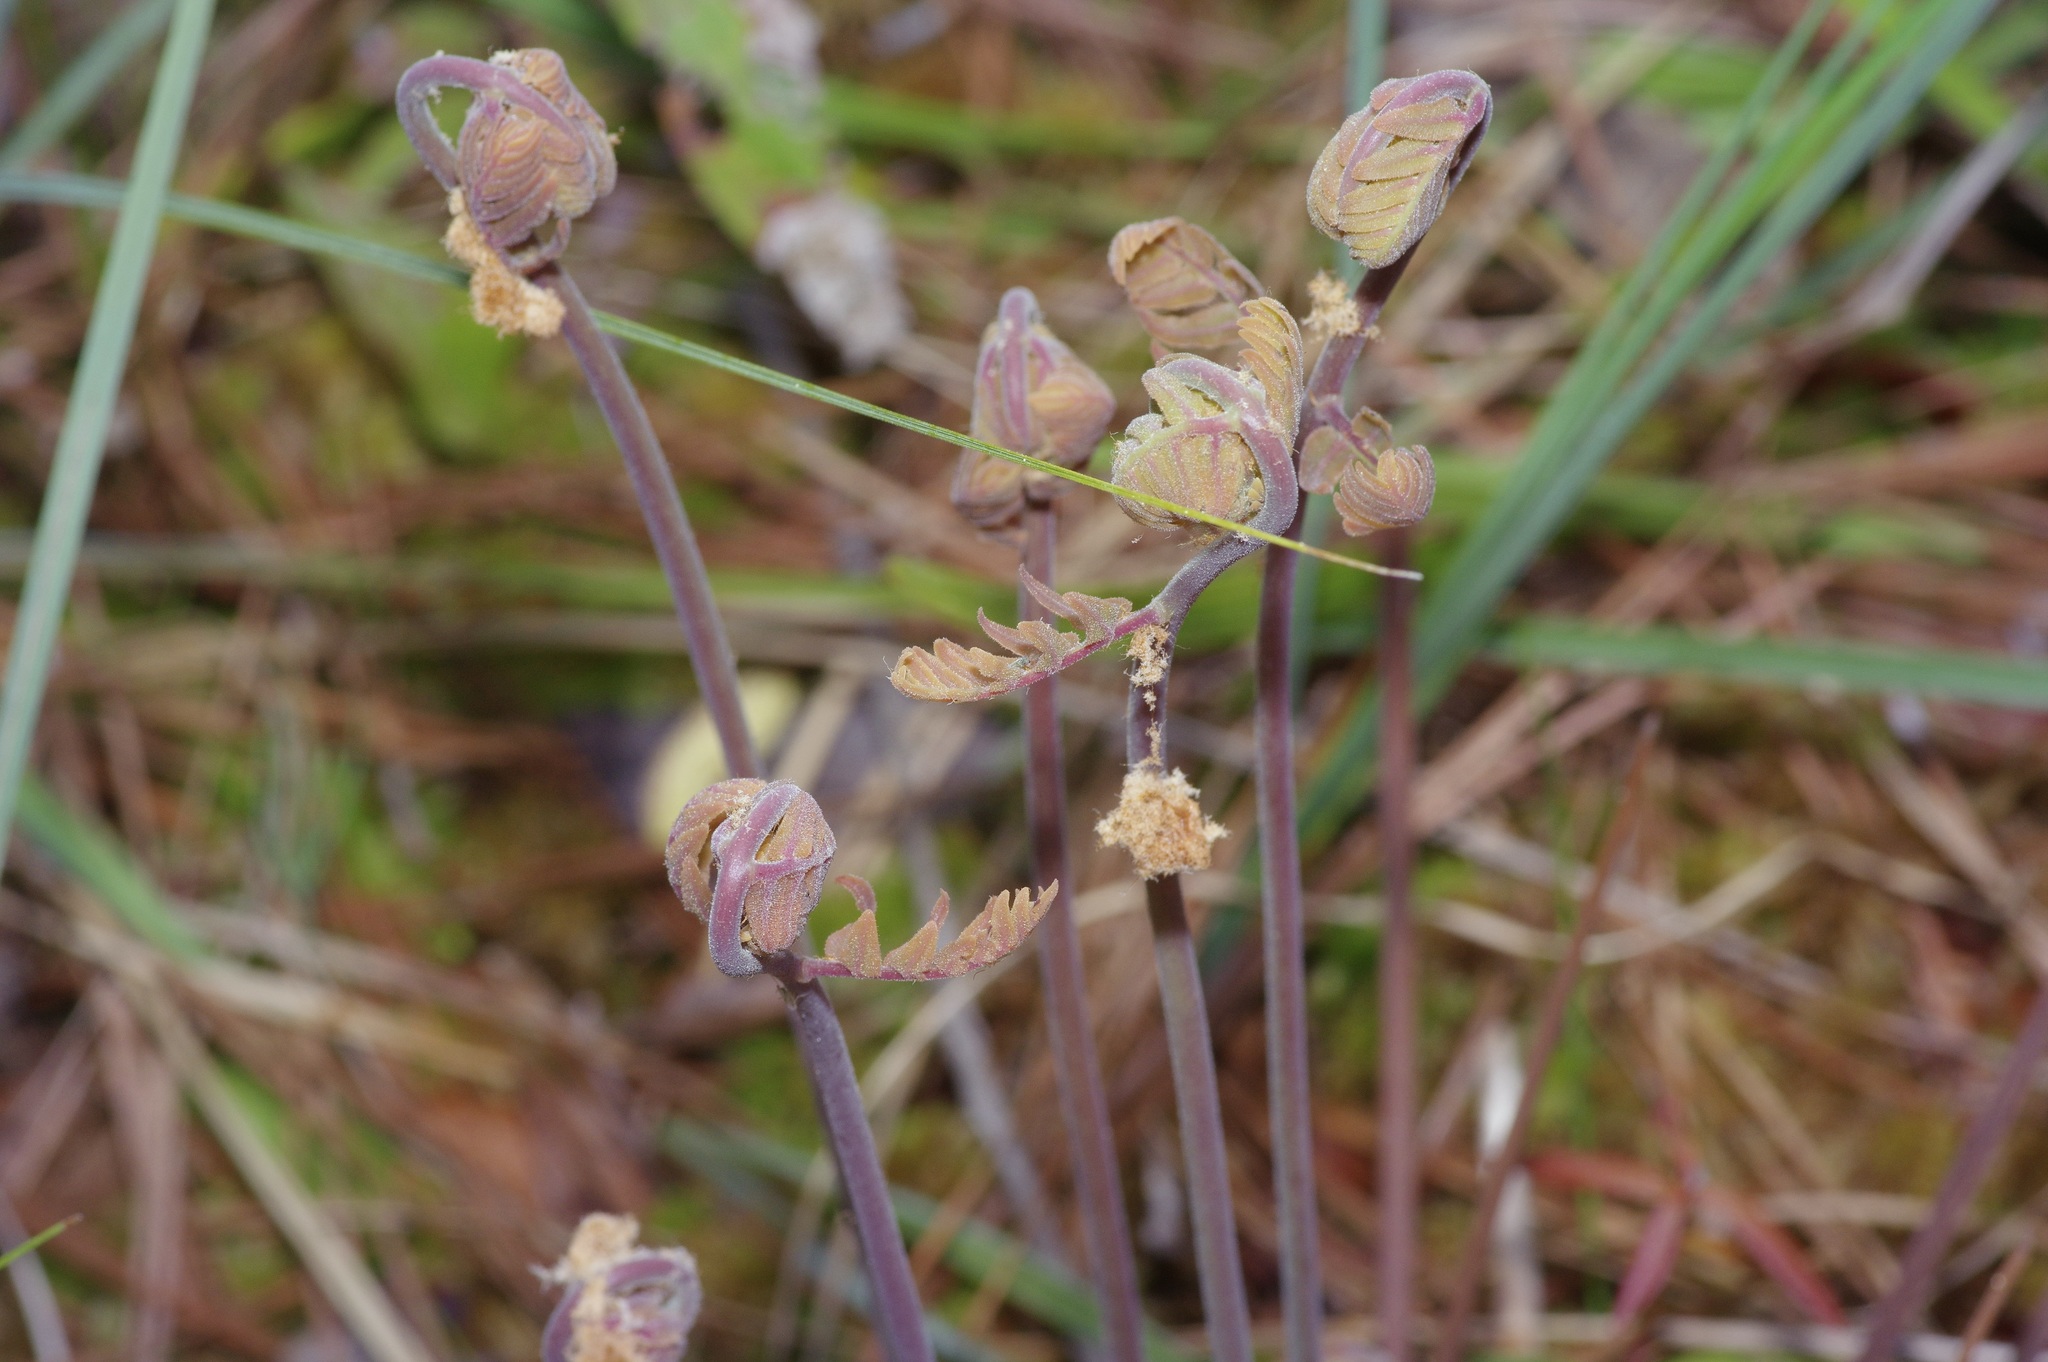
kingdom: Plantae
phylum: Tracheophyta
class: Polypodiopsida
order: Osmundales
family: Osmundaceae
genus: Osmunda
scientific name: Osmunda spectabilis
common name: American royal fern
